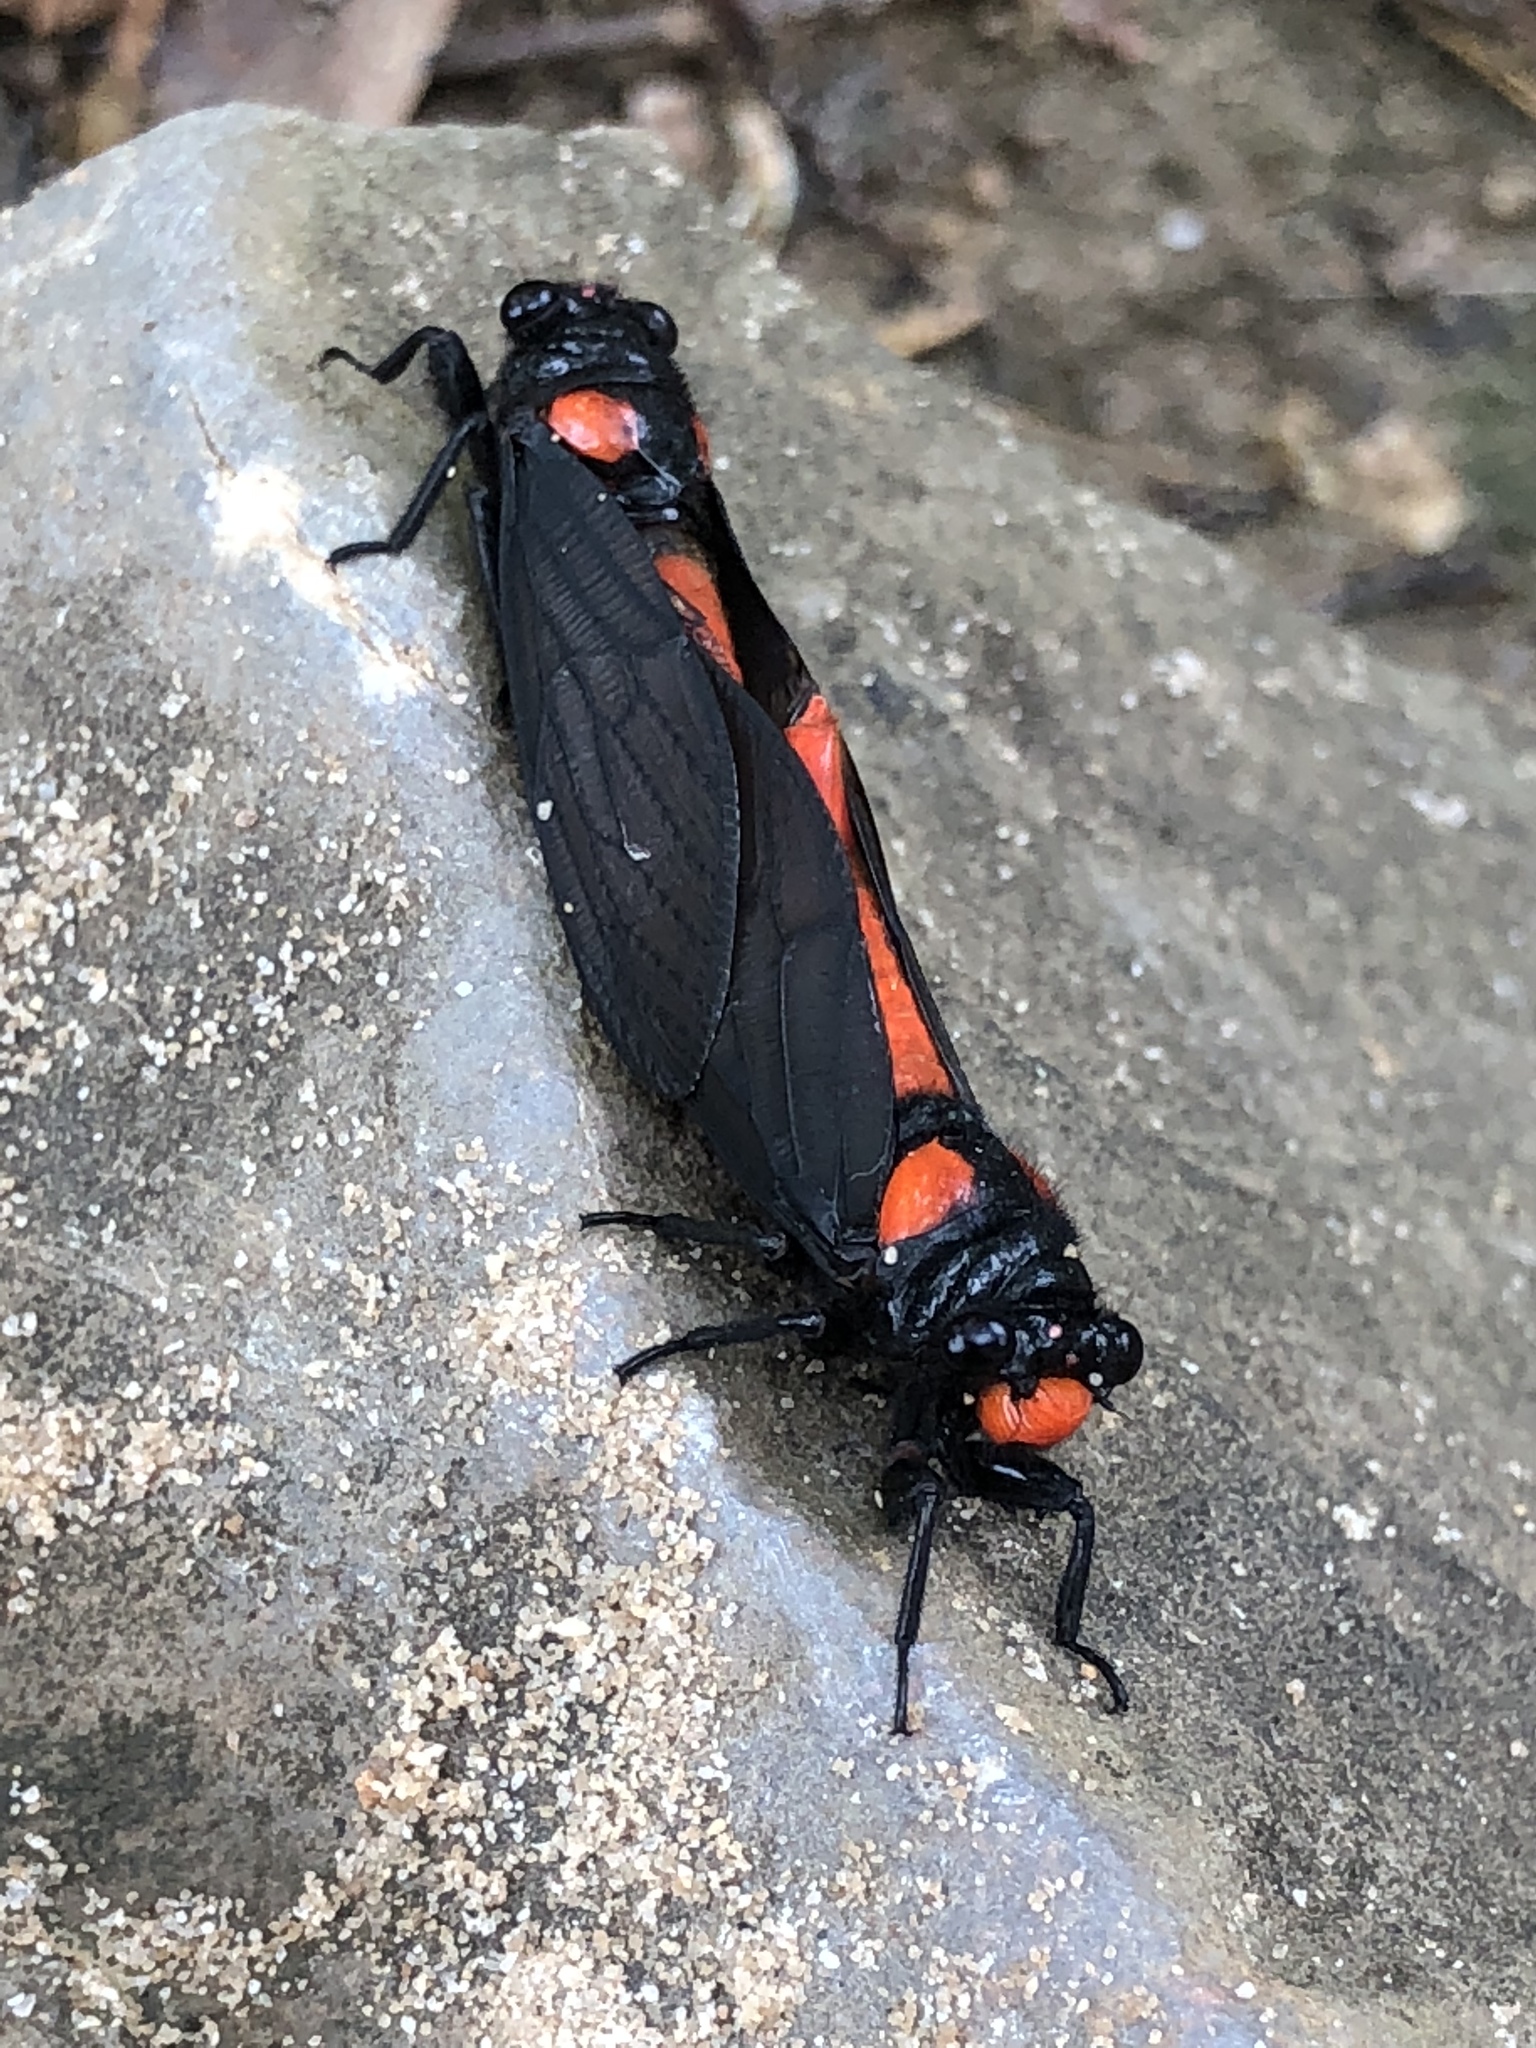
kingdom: Animalia
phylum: Arthropoda
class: Insecta
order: Hemiptera
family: Cicadidae
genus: Huechys
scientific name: Huechys sanguinea
